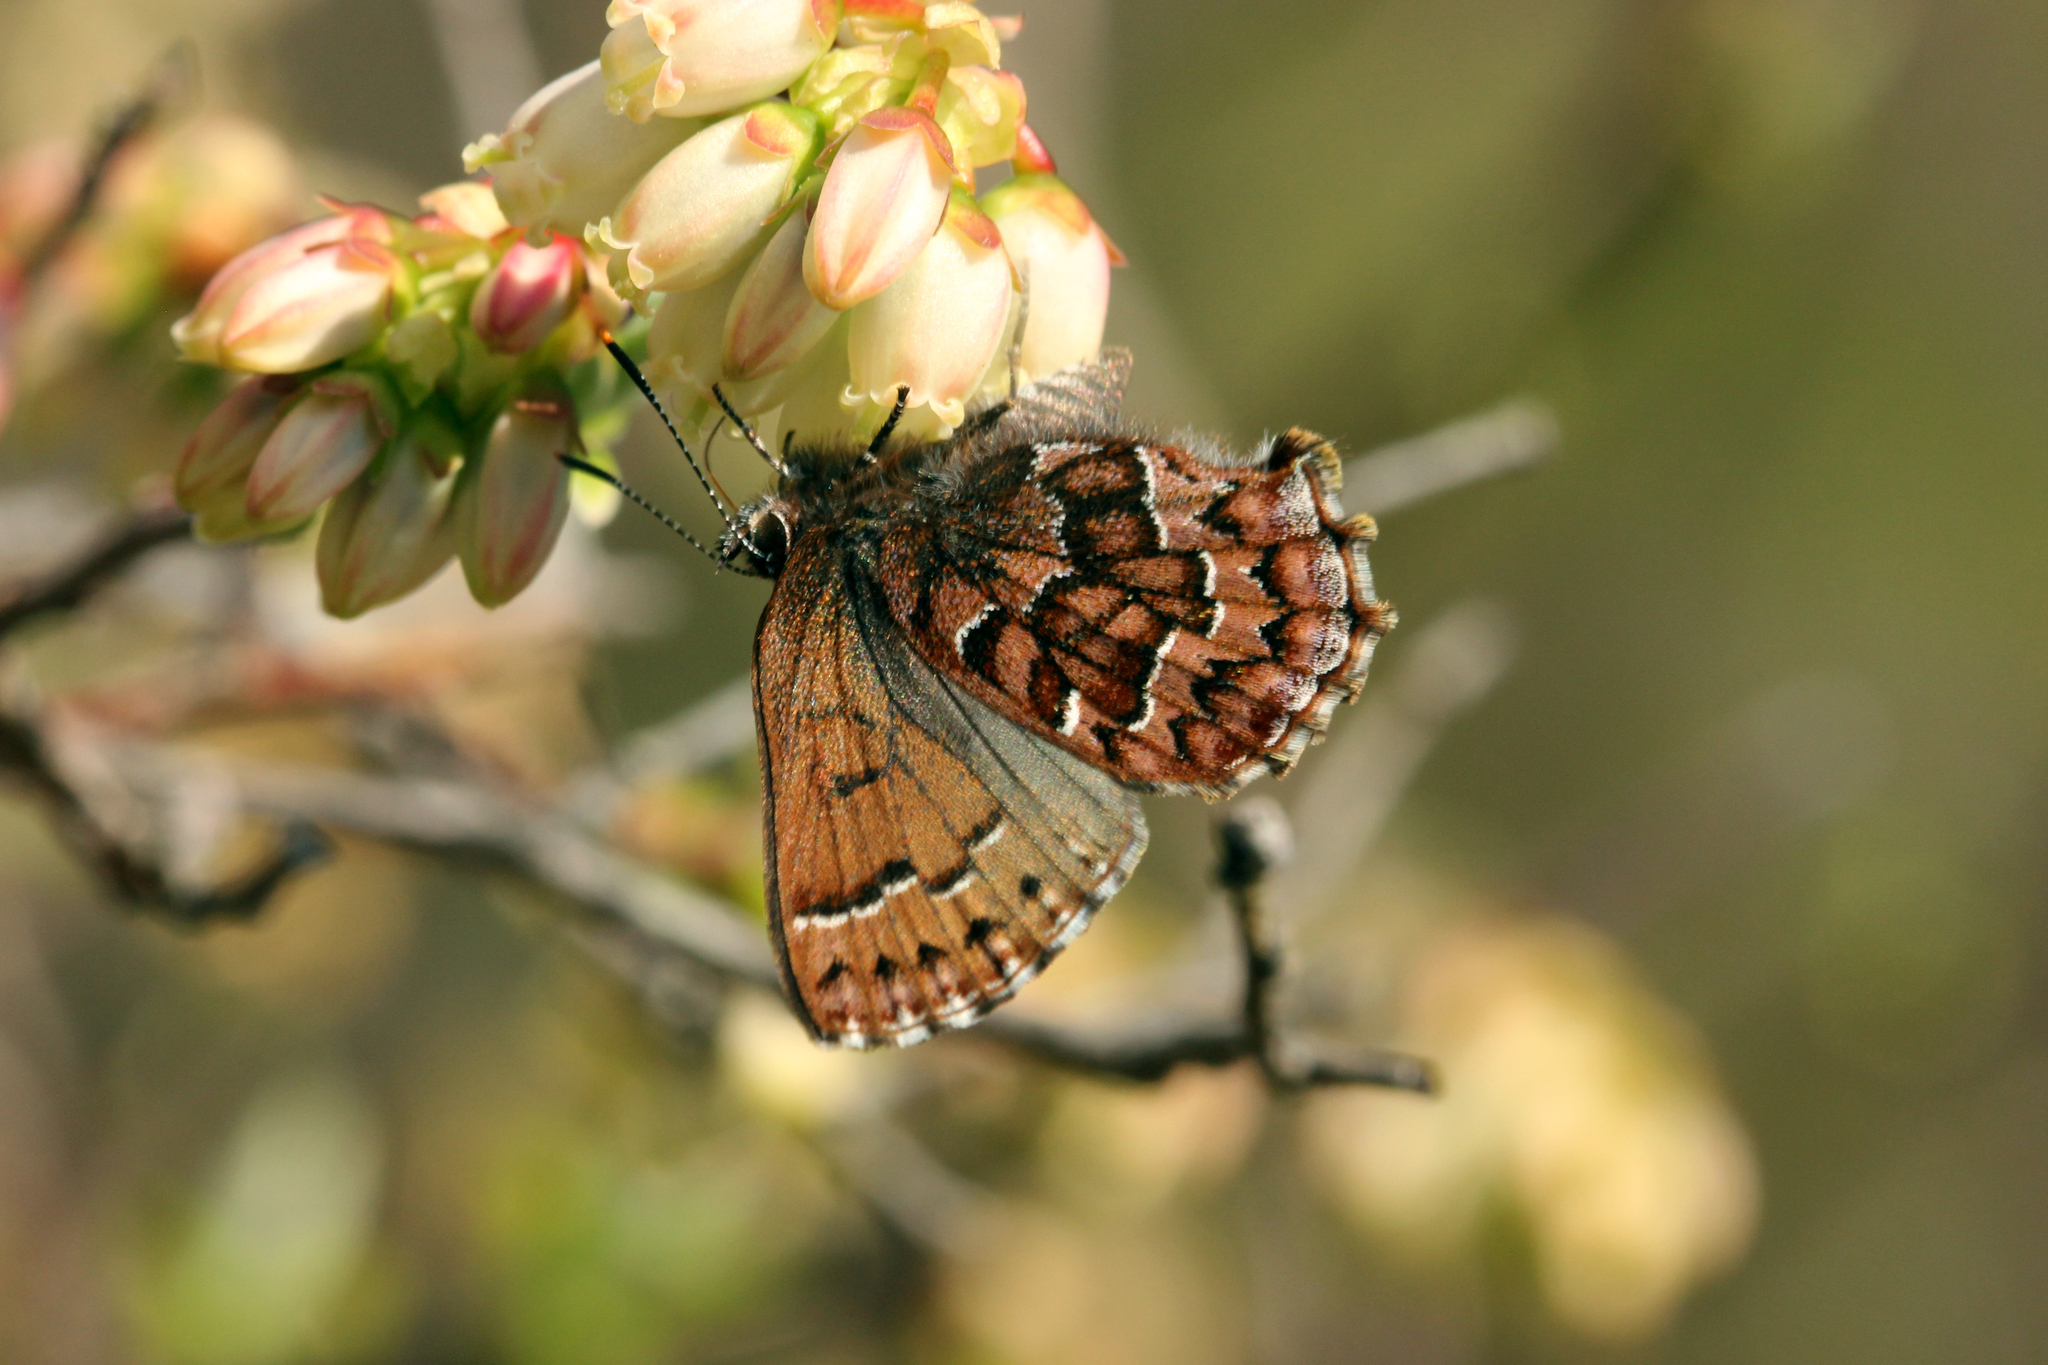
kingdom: Animalia
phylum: Arthropoda
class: Insecta
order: Lepidoptera
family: Lycaenidae
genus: Incisalia
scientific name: Incisalia niphon
